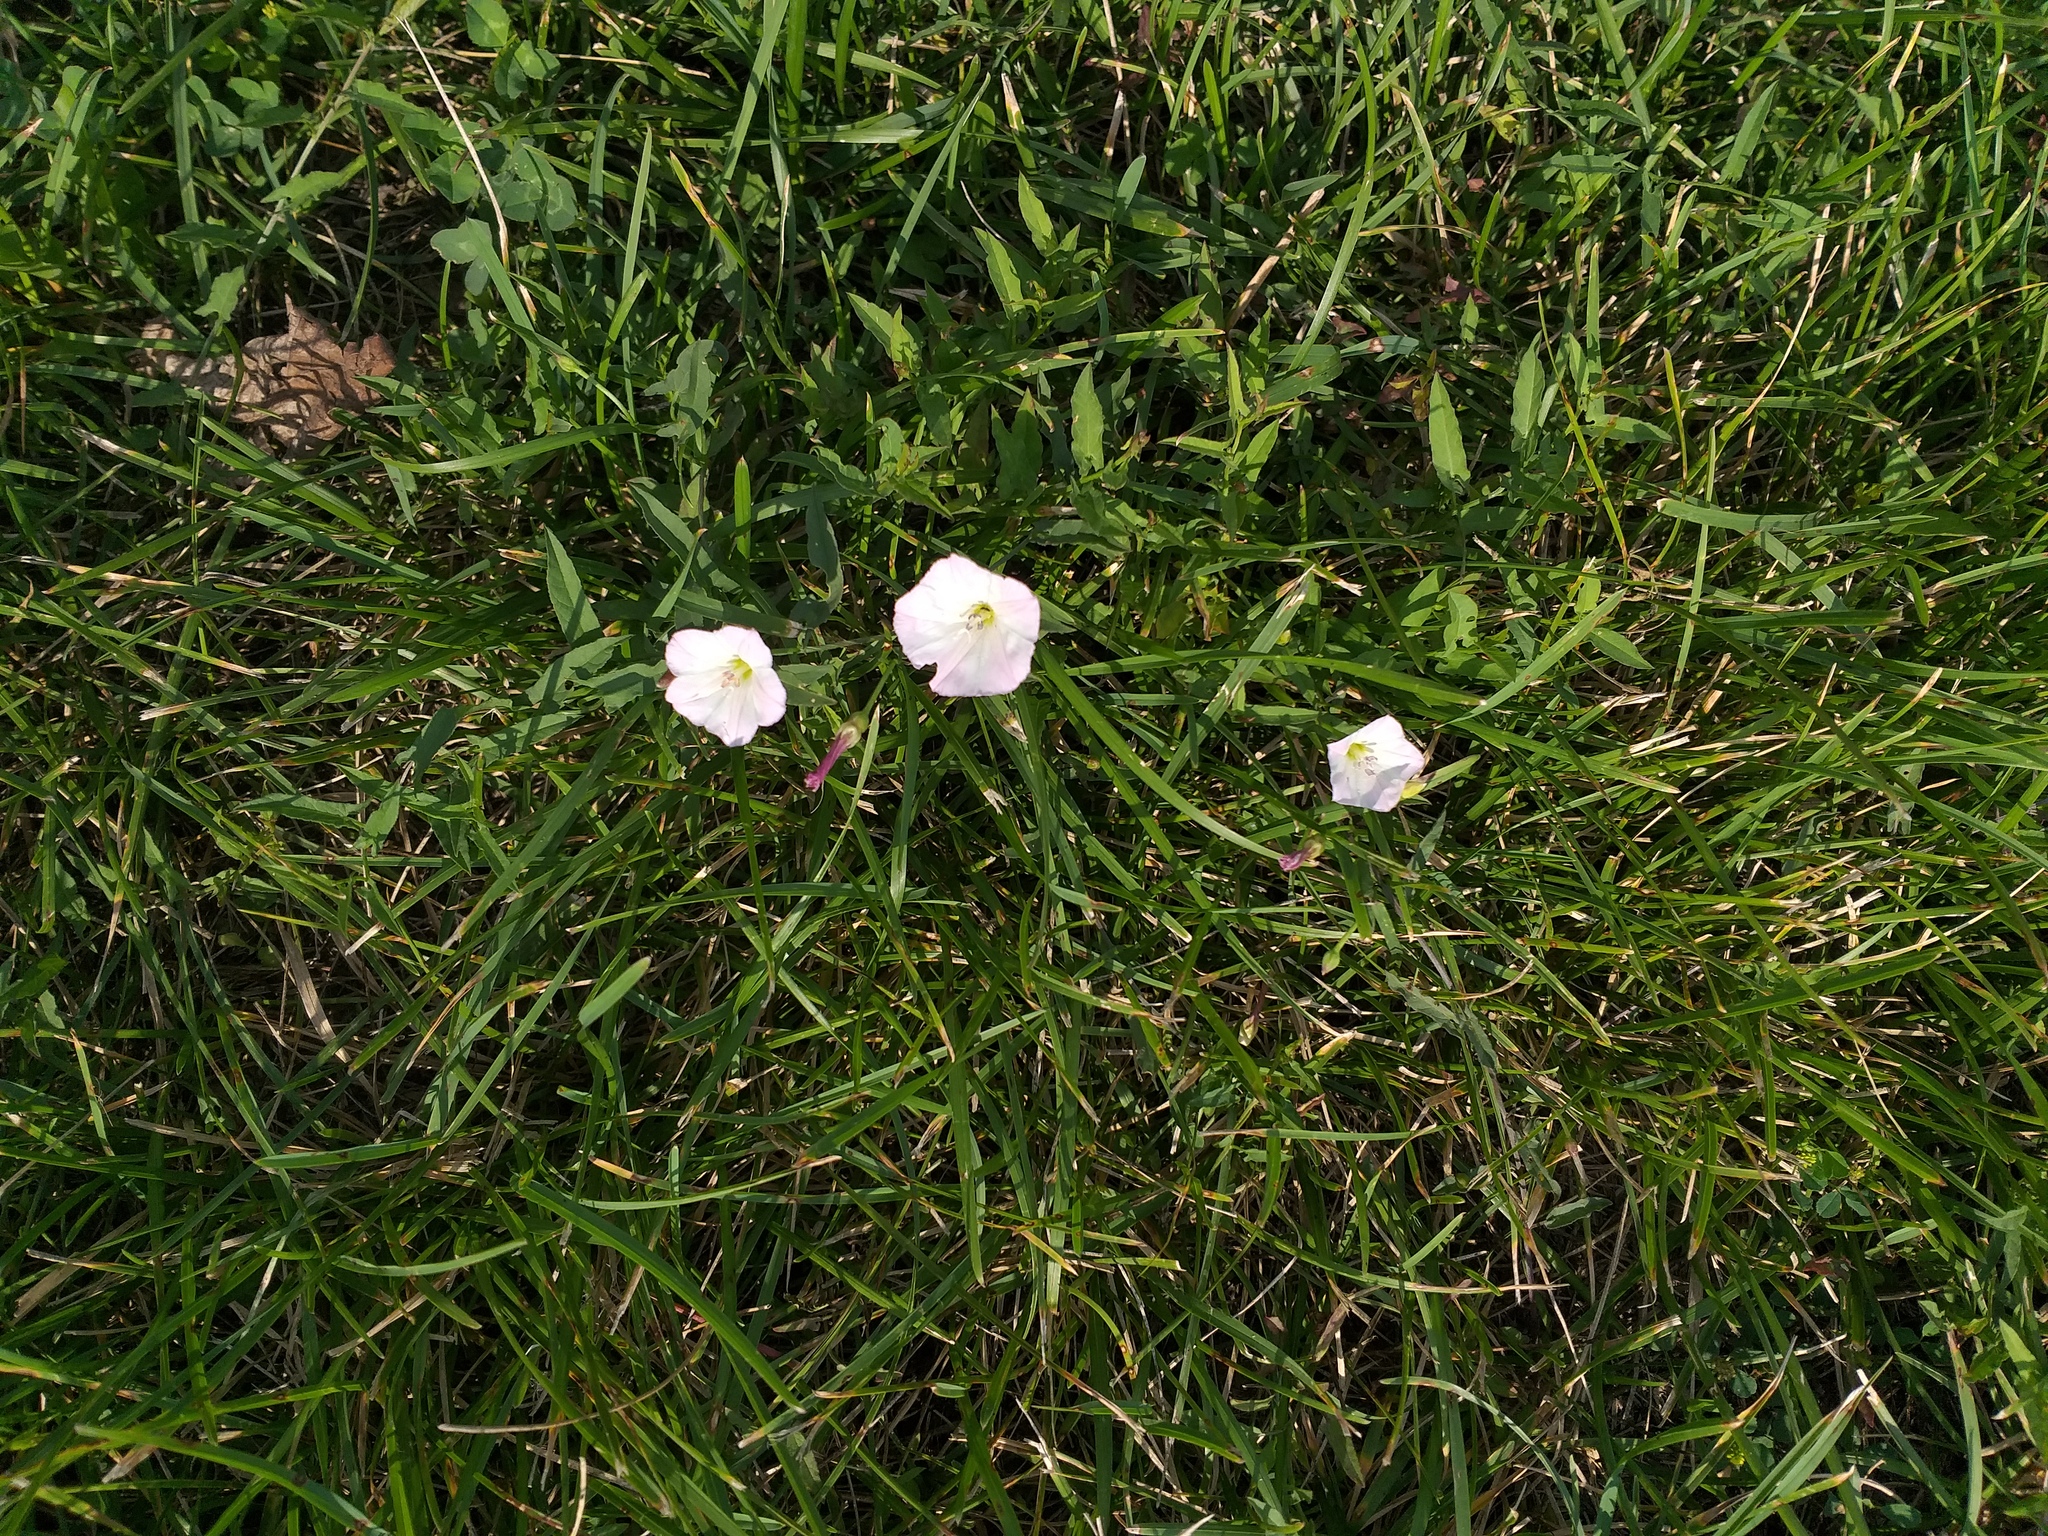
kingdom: Plantae
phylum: Tracheophyta
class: Magnoliopsida
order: Solanales
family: Convolvulaceae
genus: Convolvulus
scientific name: Convolvulus arvensis
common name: Field bindweed
